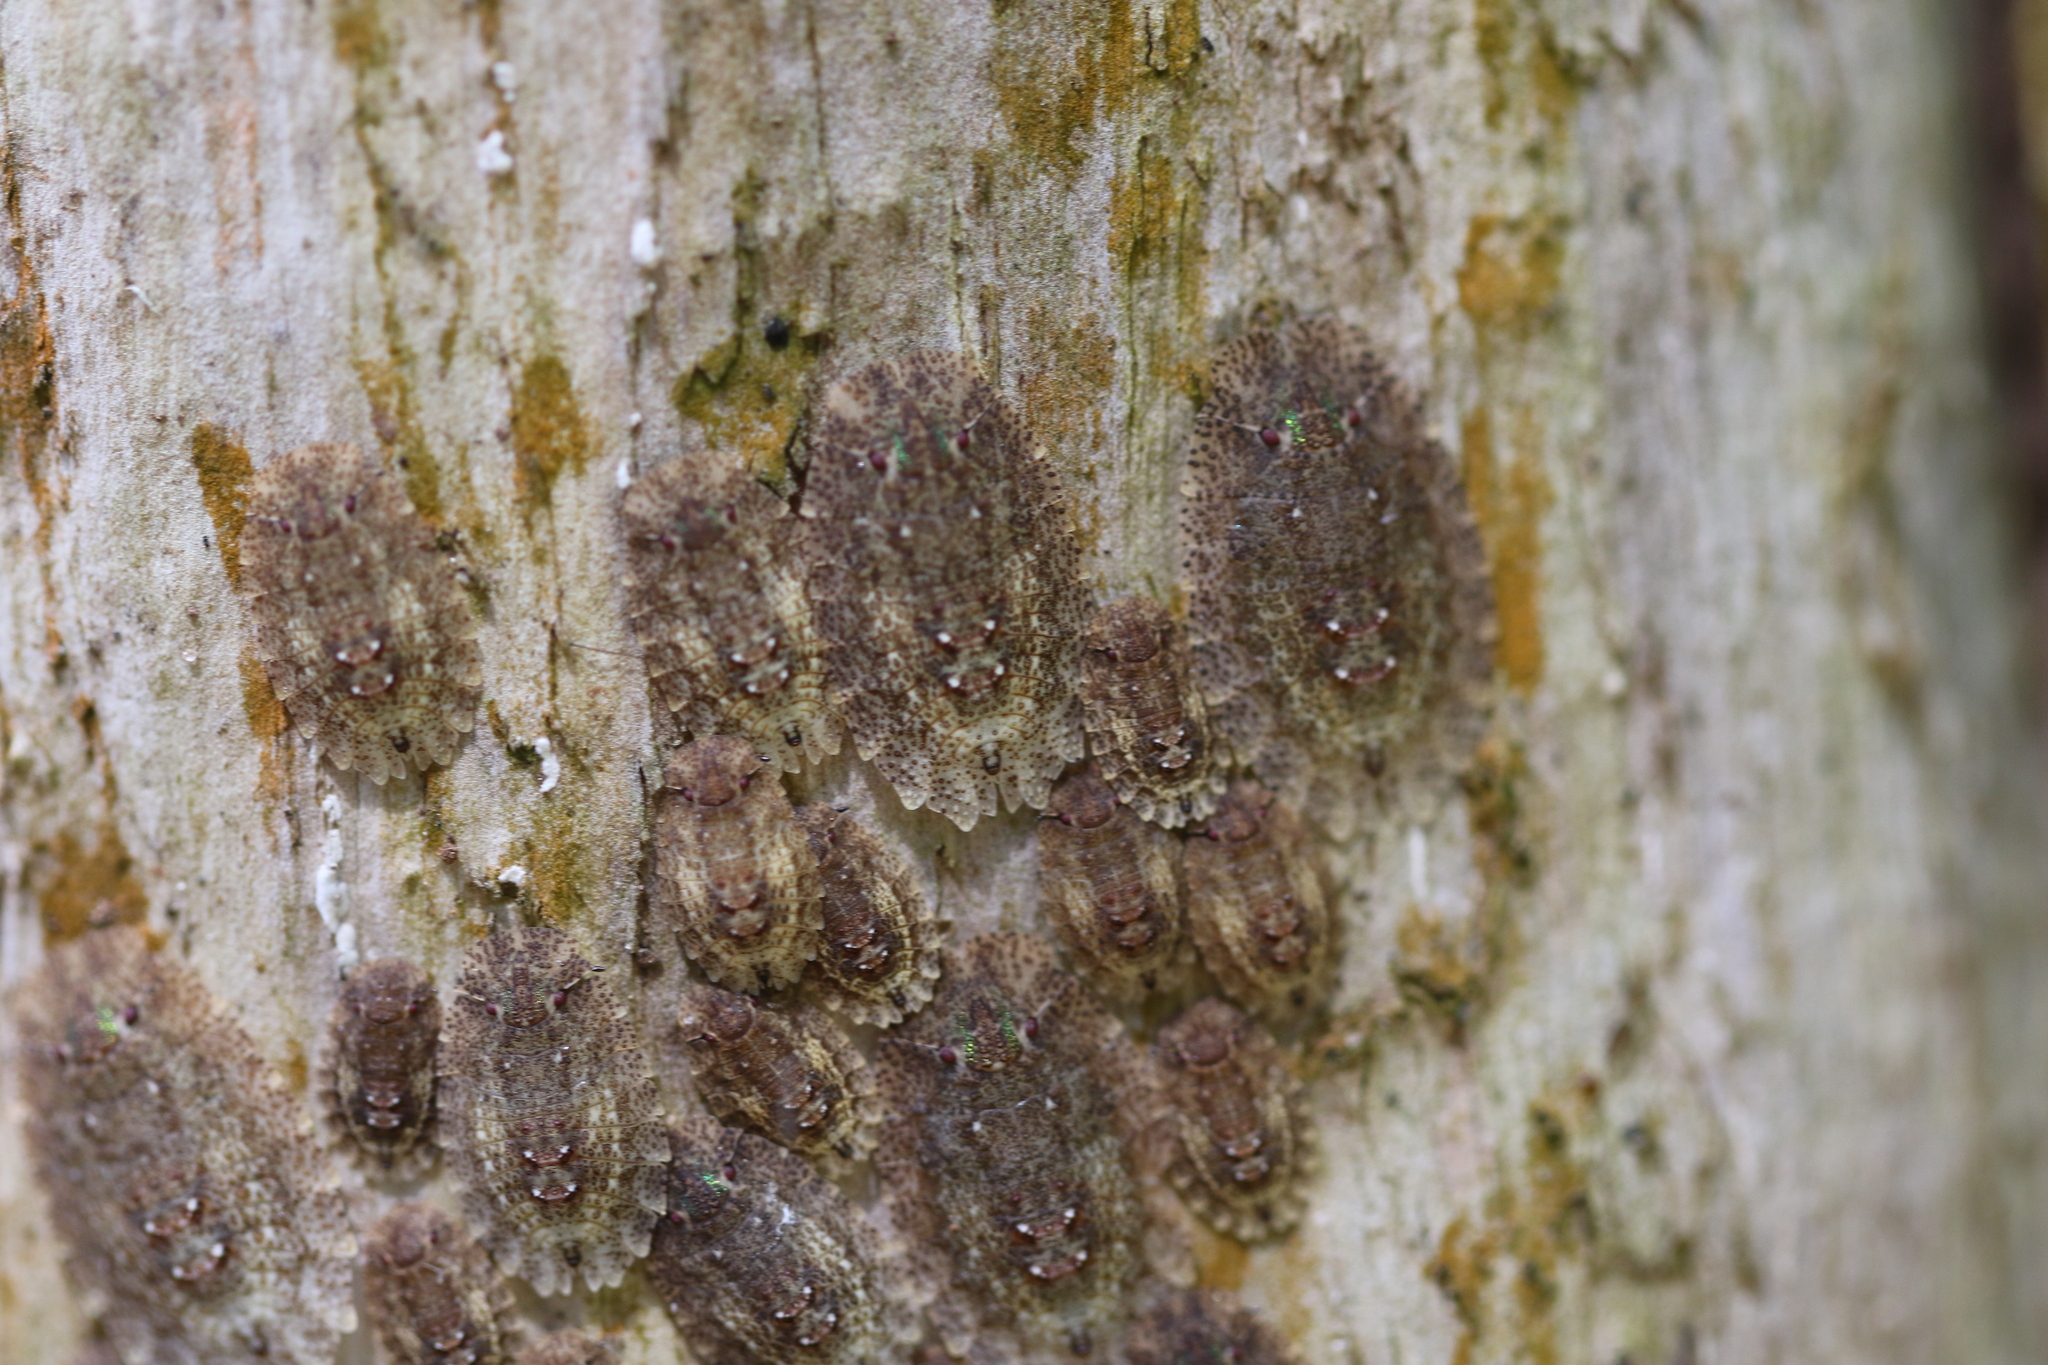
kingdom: Animalia
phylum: Arthropoda
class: Insecta
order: Hemiptera
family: Phleides
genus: Phloea
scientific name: Phloea
